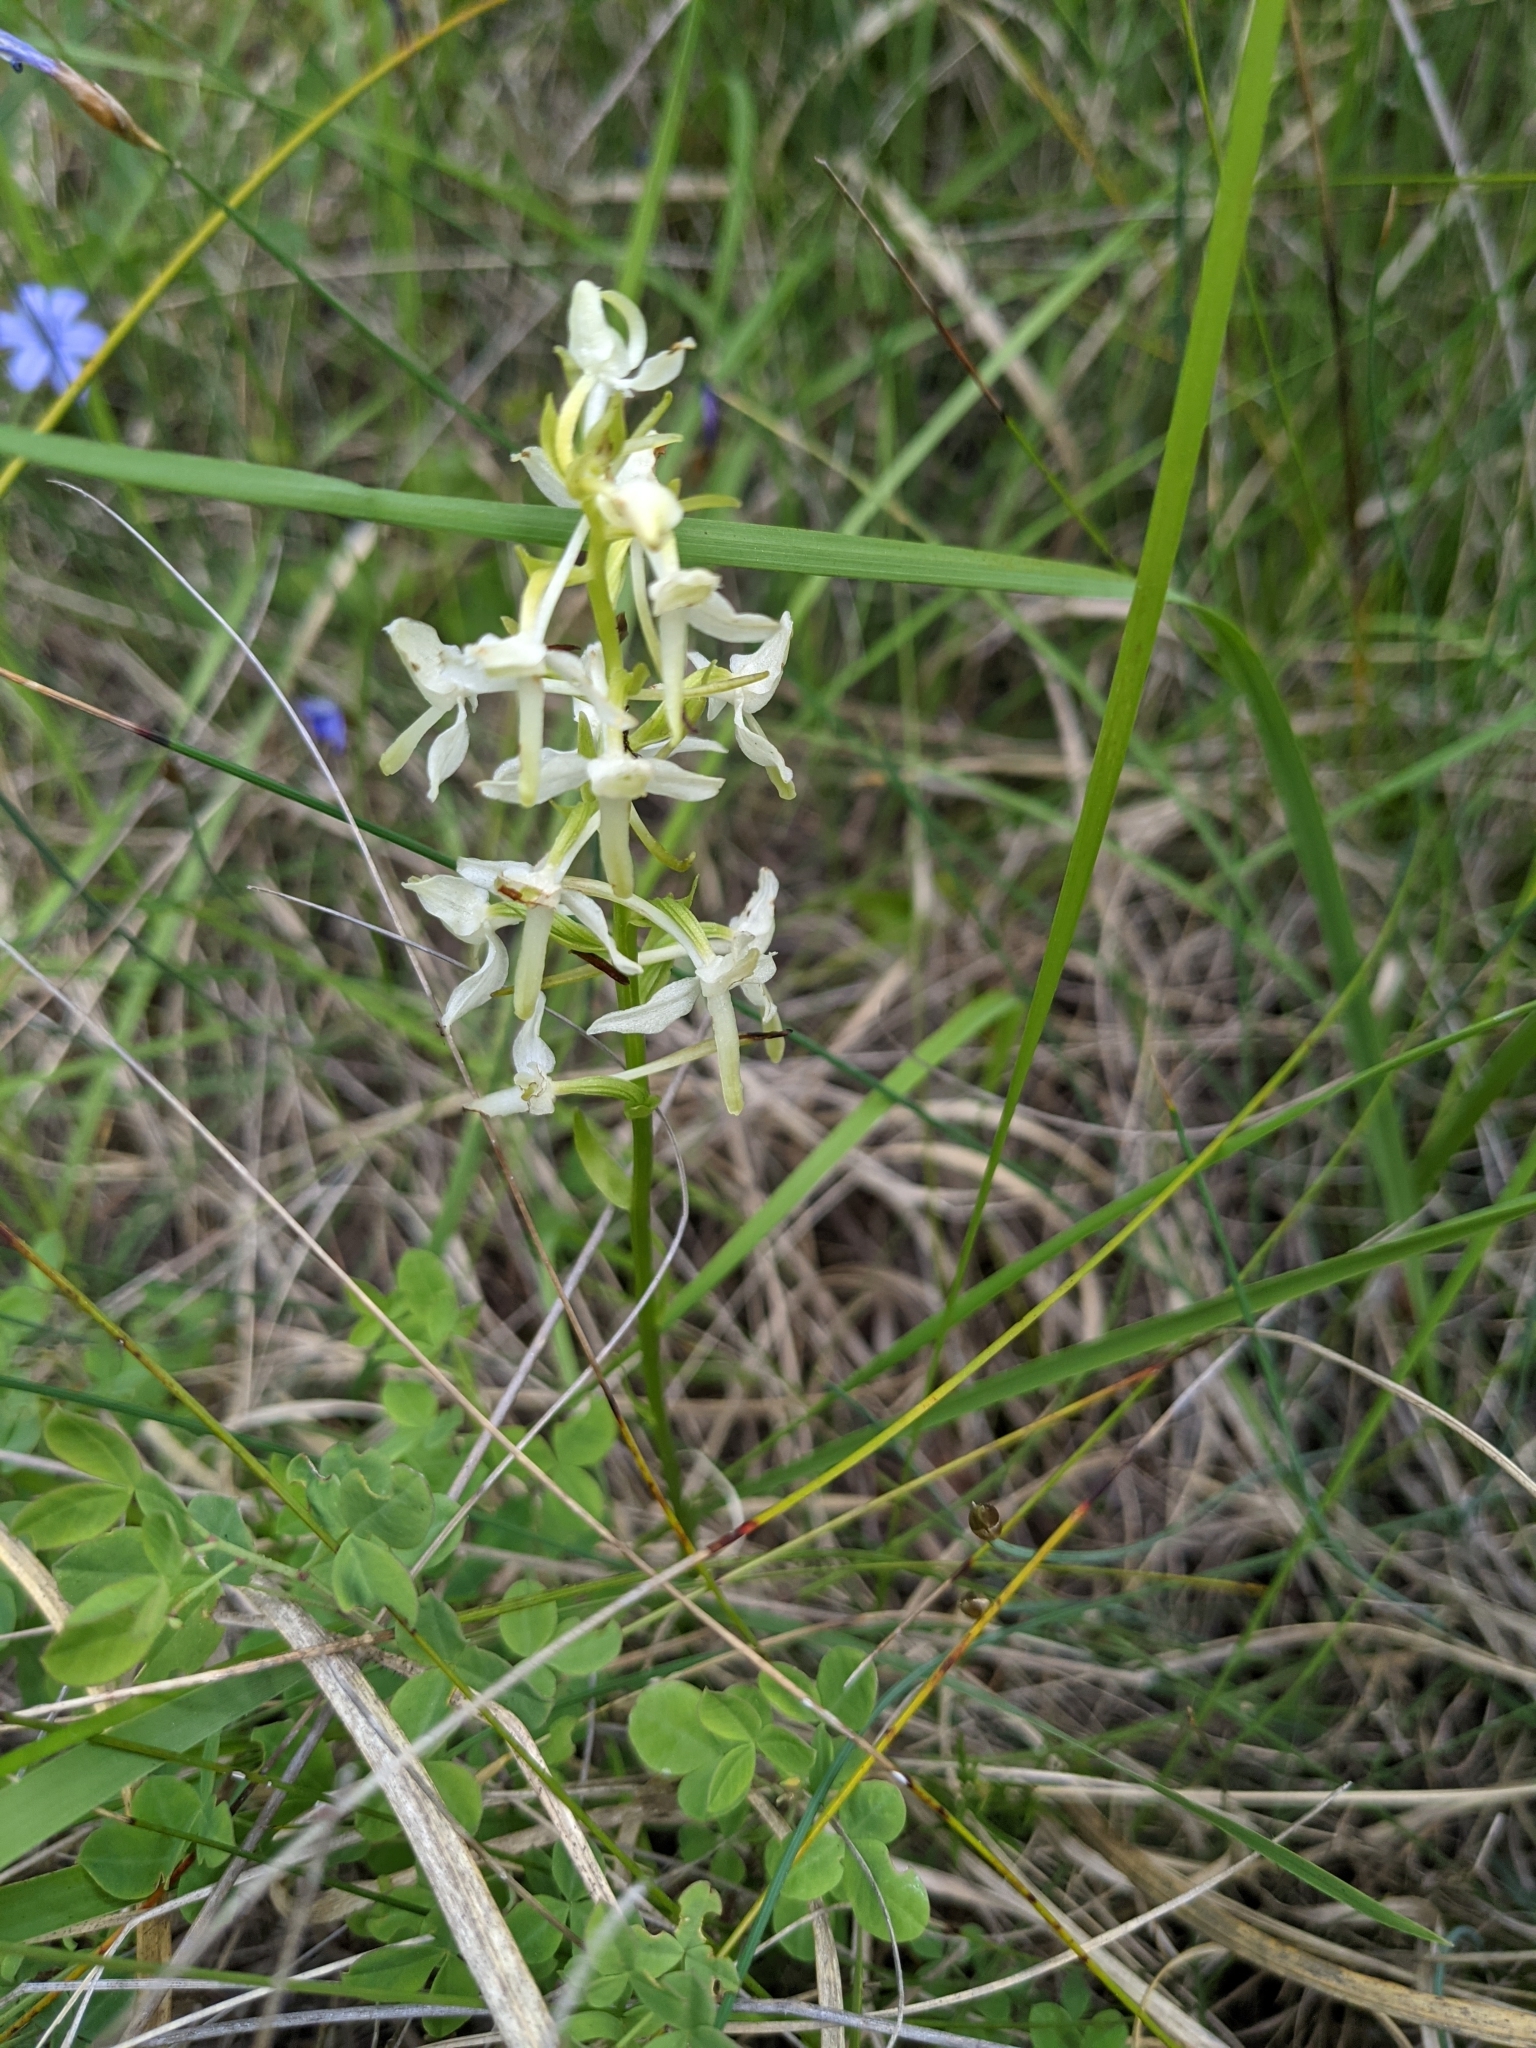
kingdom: Plantae
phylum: Tracheophyta
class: Liliopsida
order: Asparagales
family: Orchidaceae
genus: Platanthera
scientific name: Platanthera bifolia
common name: Lesser butterfly-orchid
